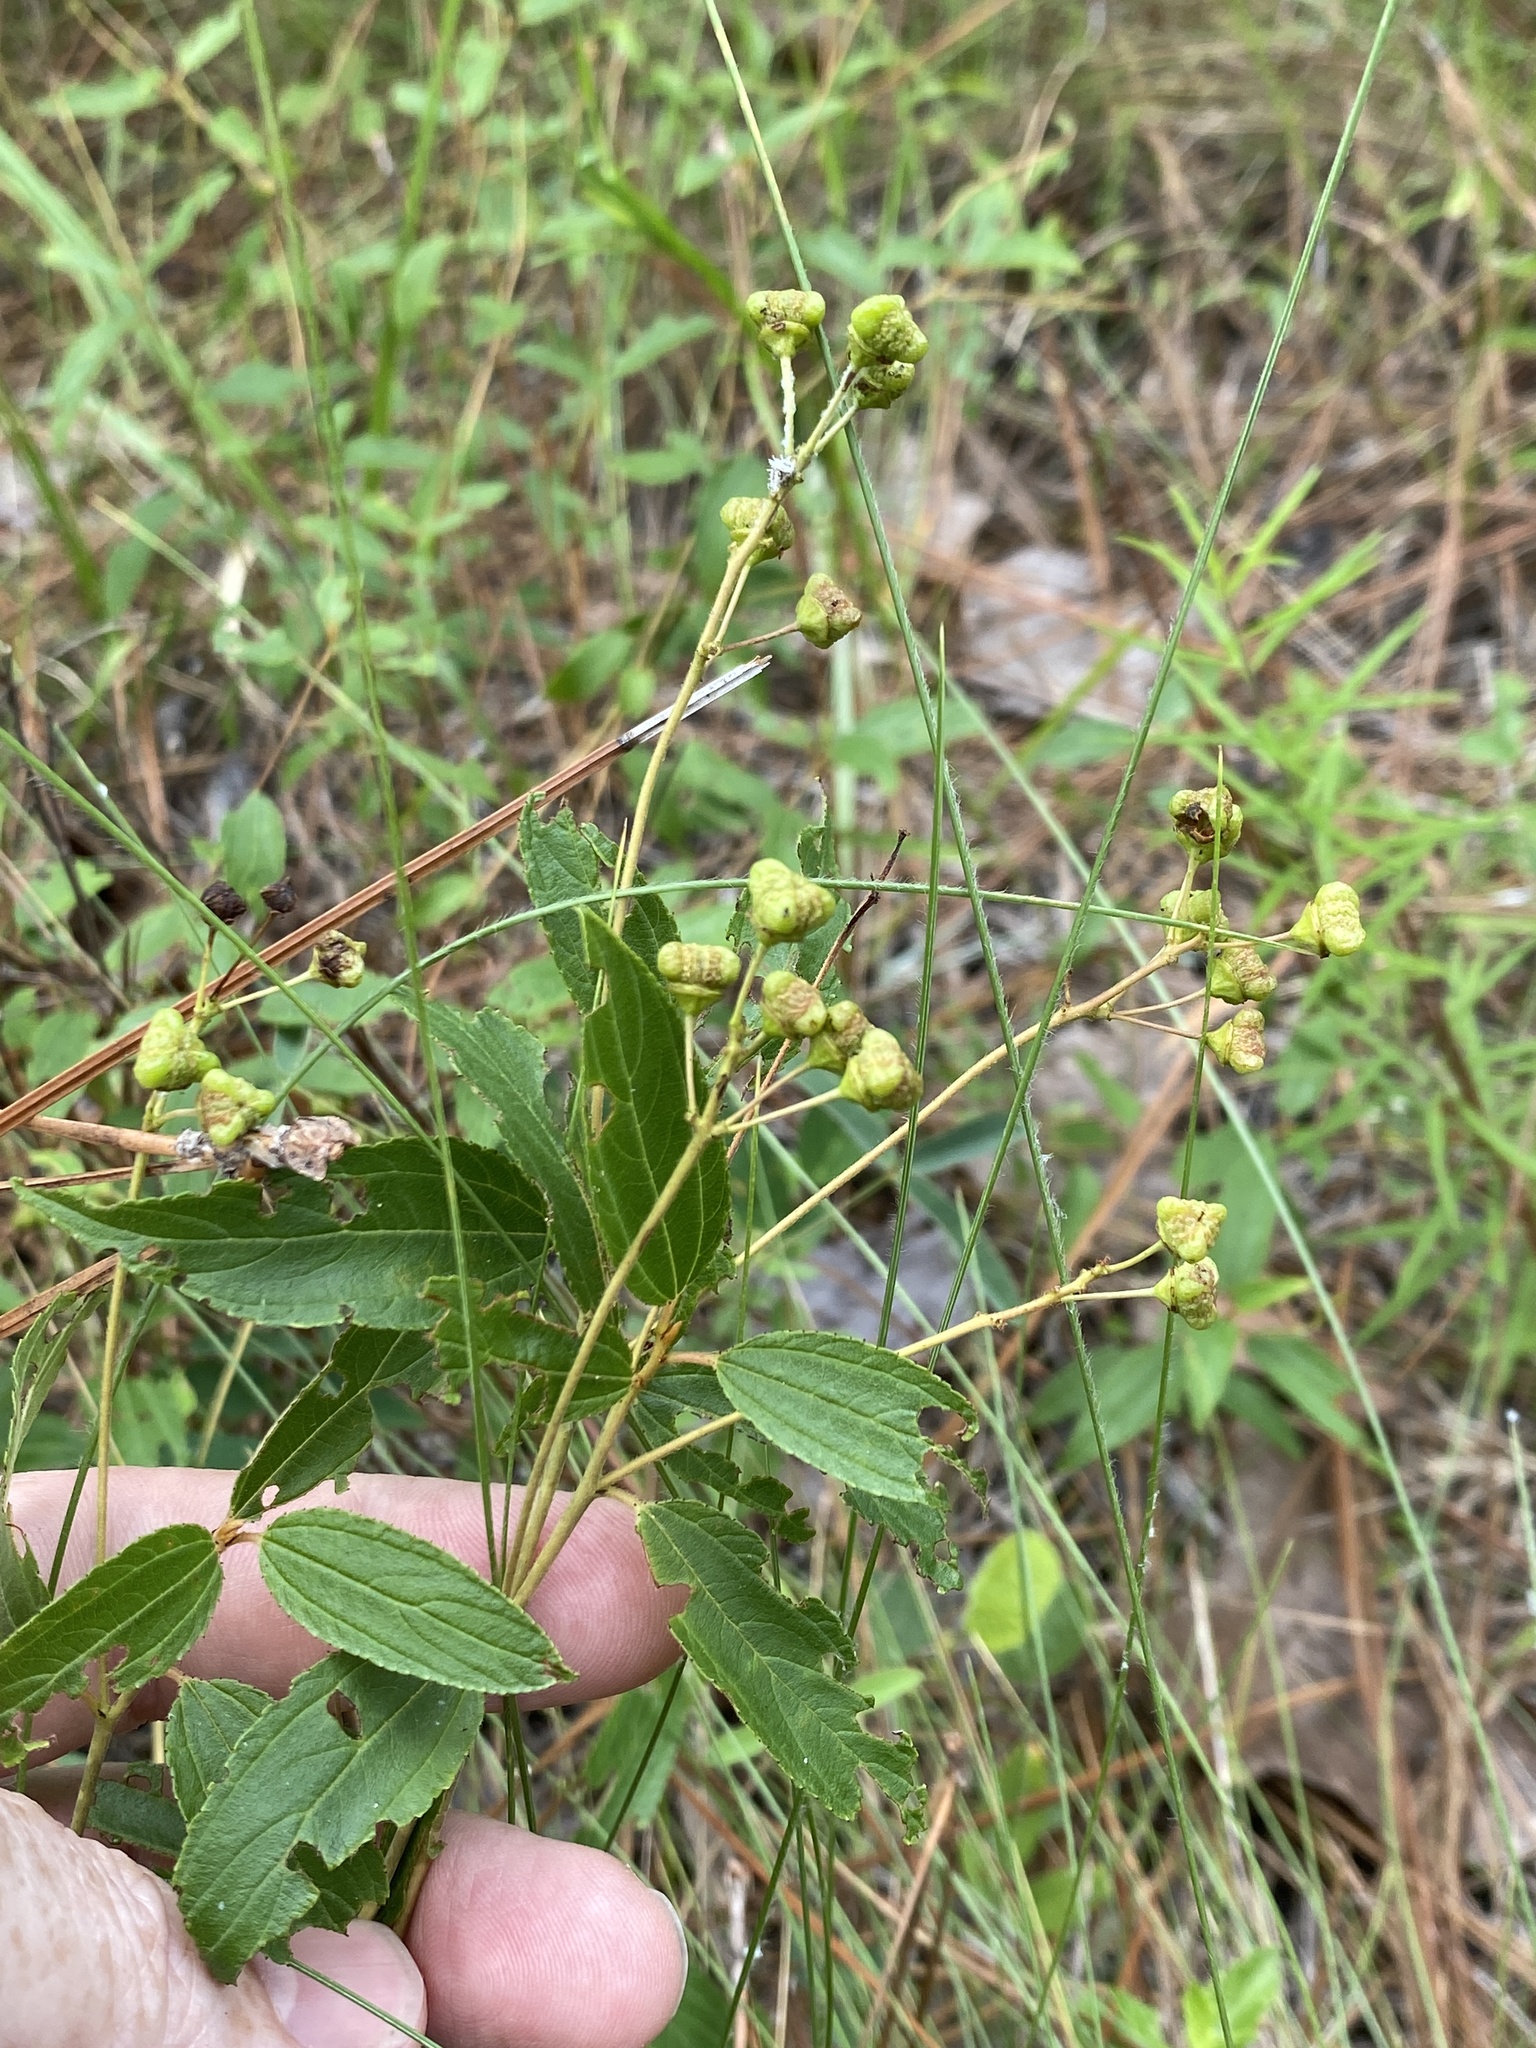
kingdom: Plantae
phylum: Tracheophyta
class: Magnoliopsida
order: Rosales
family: Rhamnaceae
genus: Ceanothus
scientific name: Ceanothus americanus
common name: Redroot
